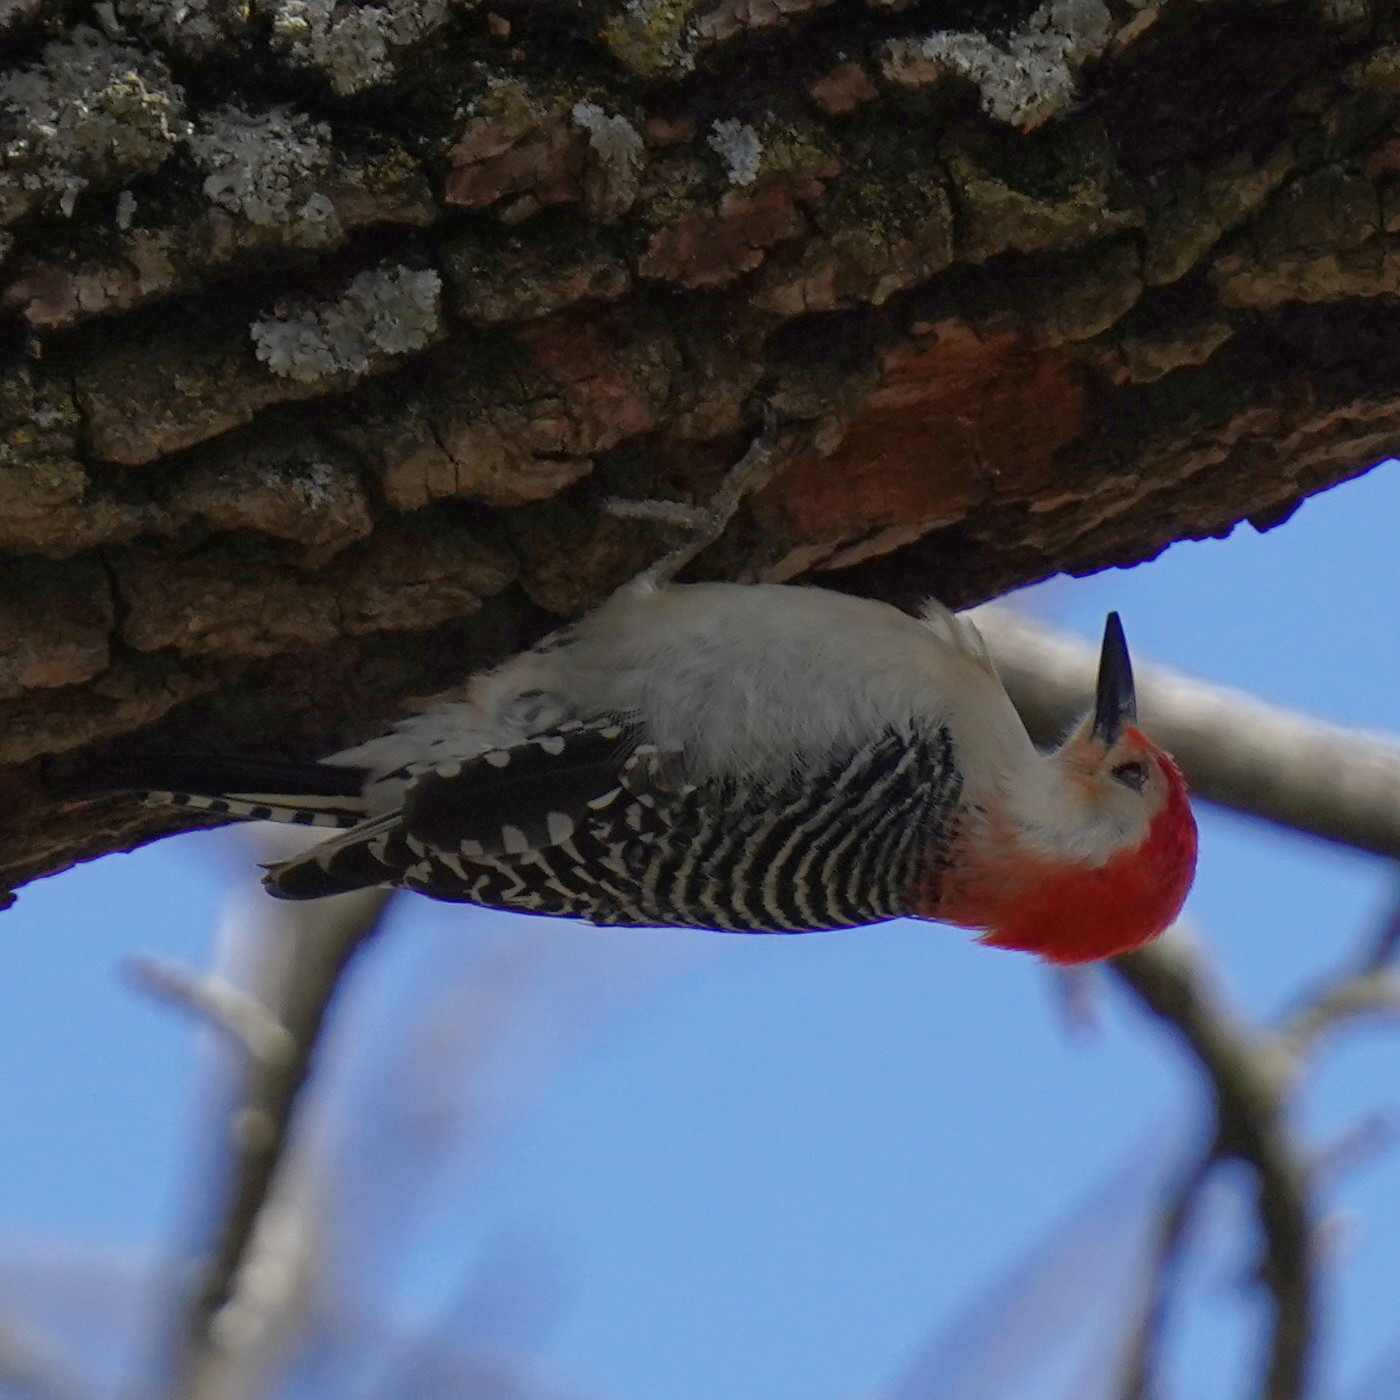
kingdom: Animalia
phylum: Chordata
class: Aves
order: Piciformes
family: Picidae
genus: Melanerpes
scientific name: Melanerpes carolinus
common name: Red-bellied woodpecker
